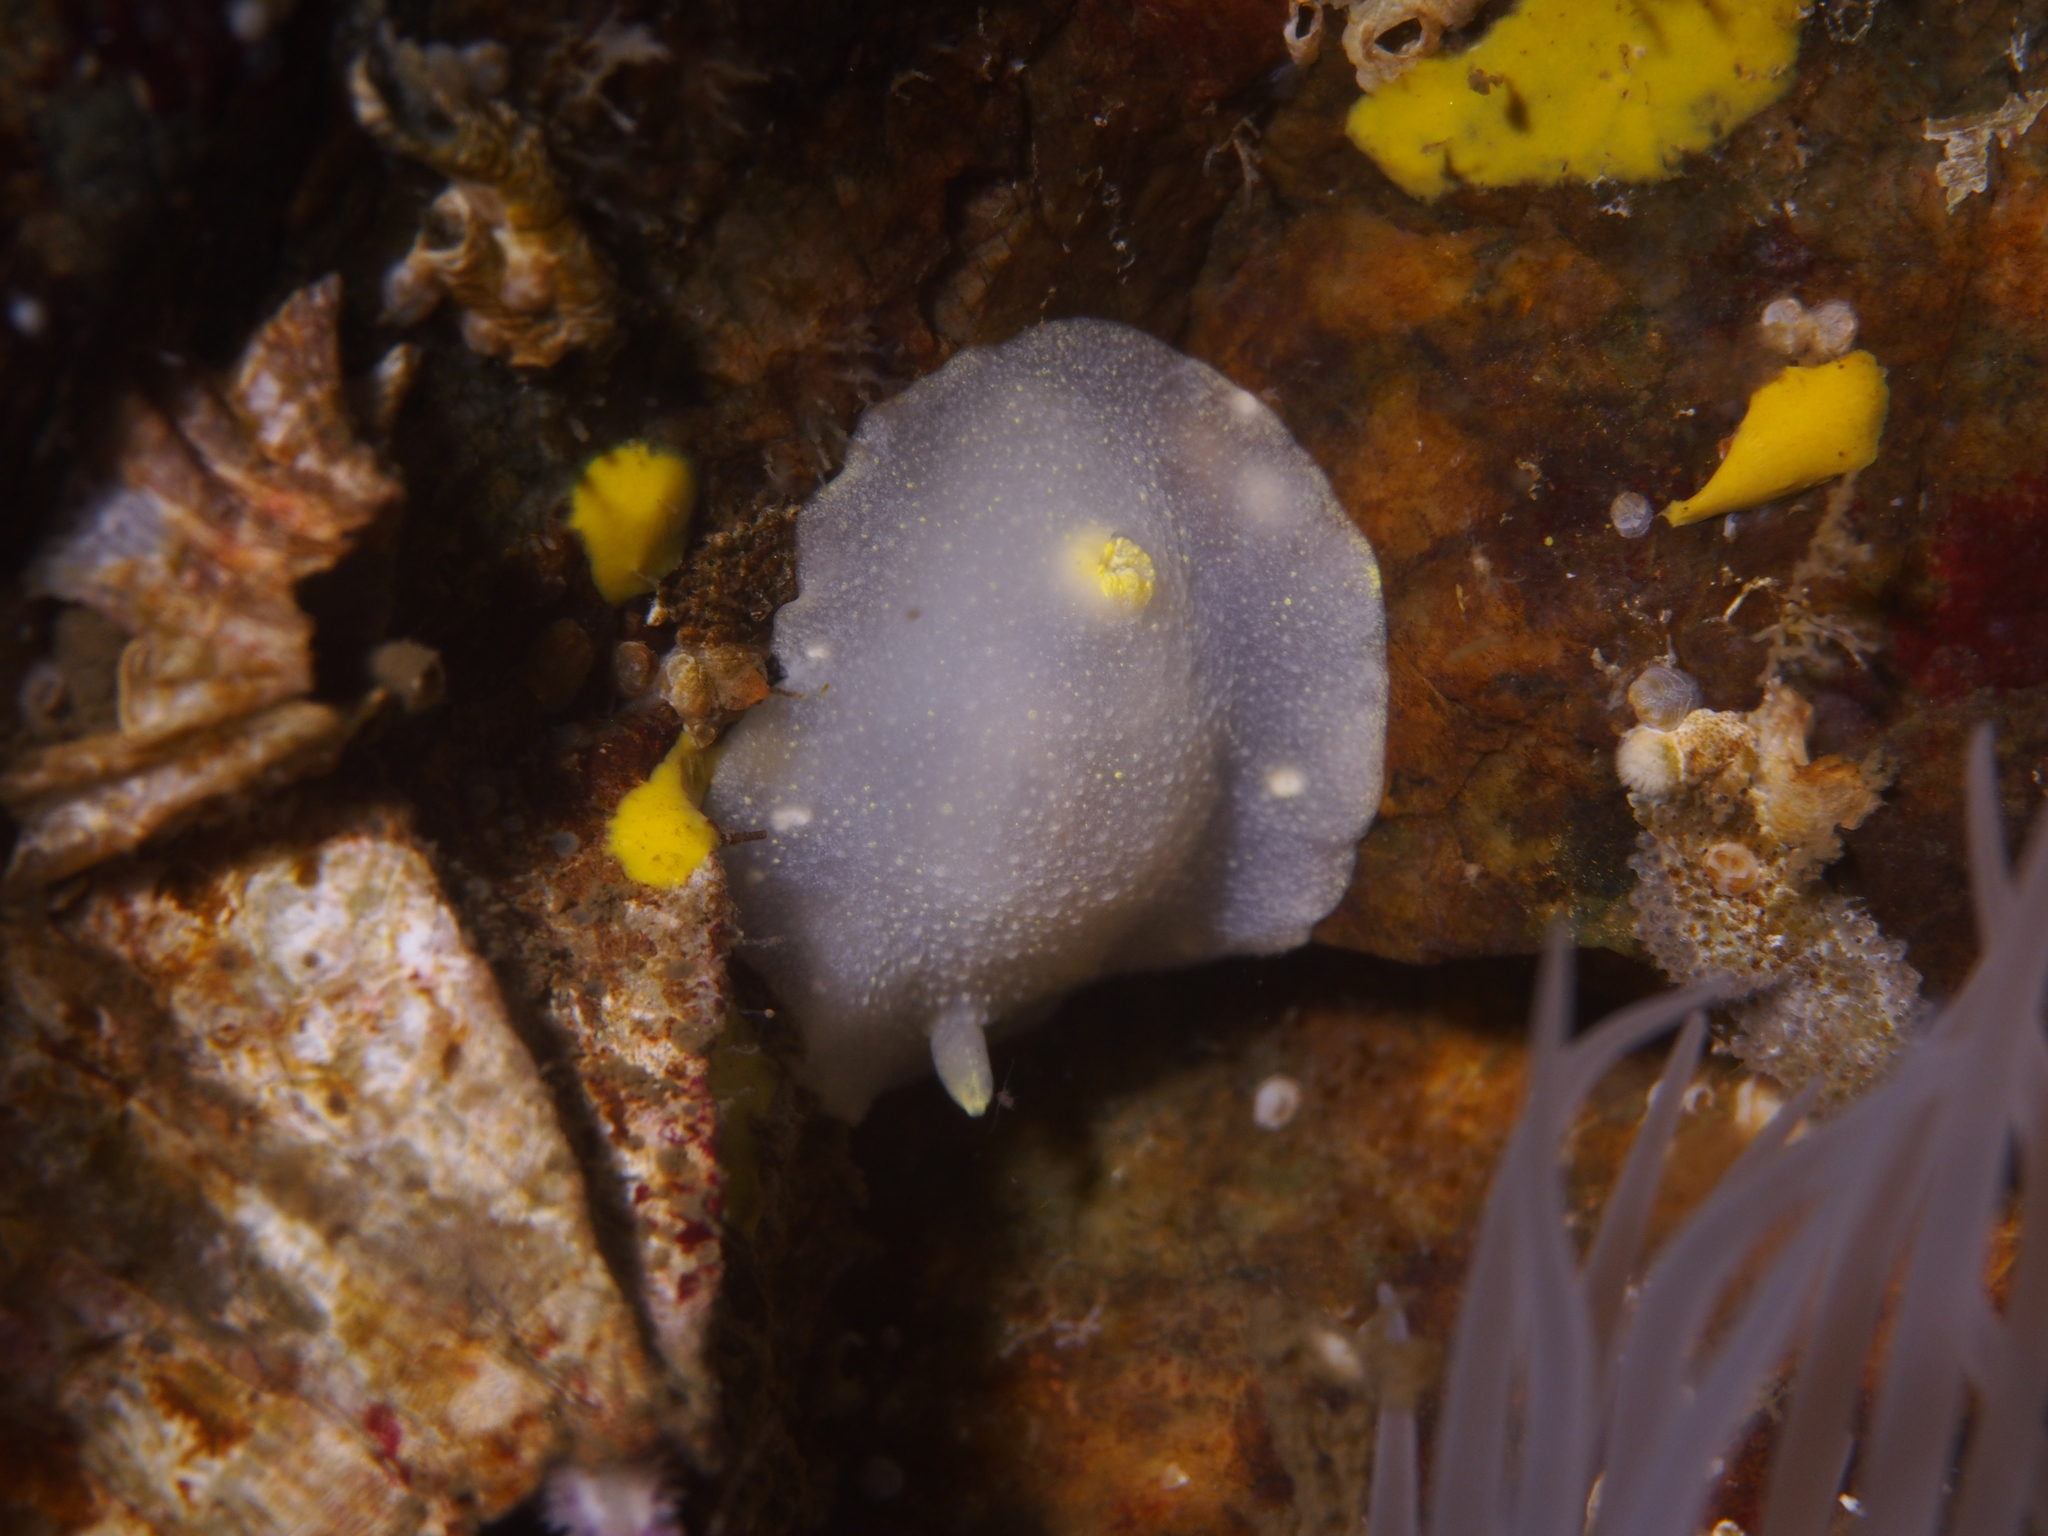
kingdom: Animalia
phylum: Mollusca
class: Gastropoda
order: Nudibranchia
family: Cadlinidae
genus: Cadlina
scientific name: Cadlina laevis
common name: White atlantic cadlina
